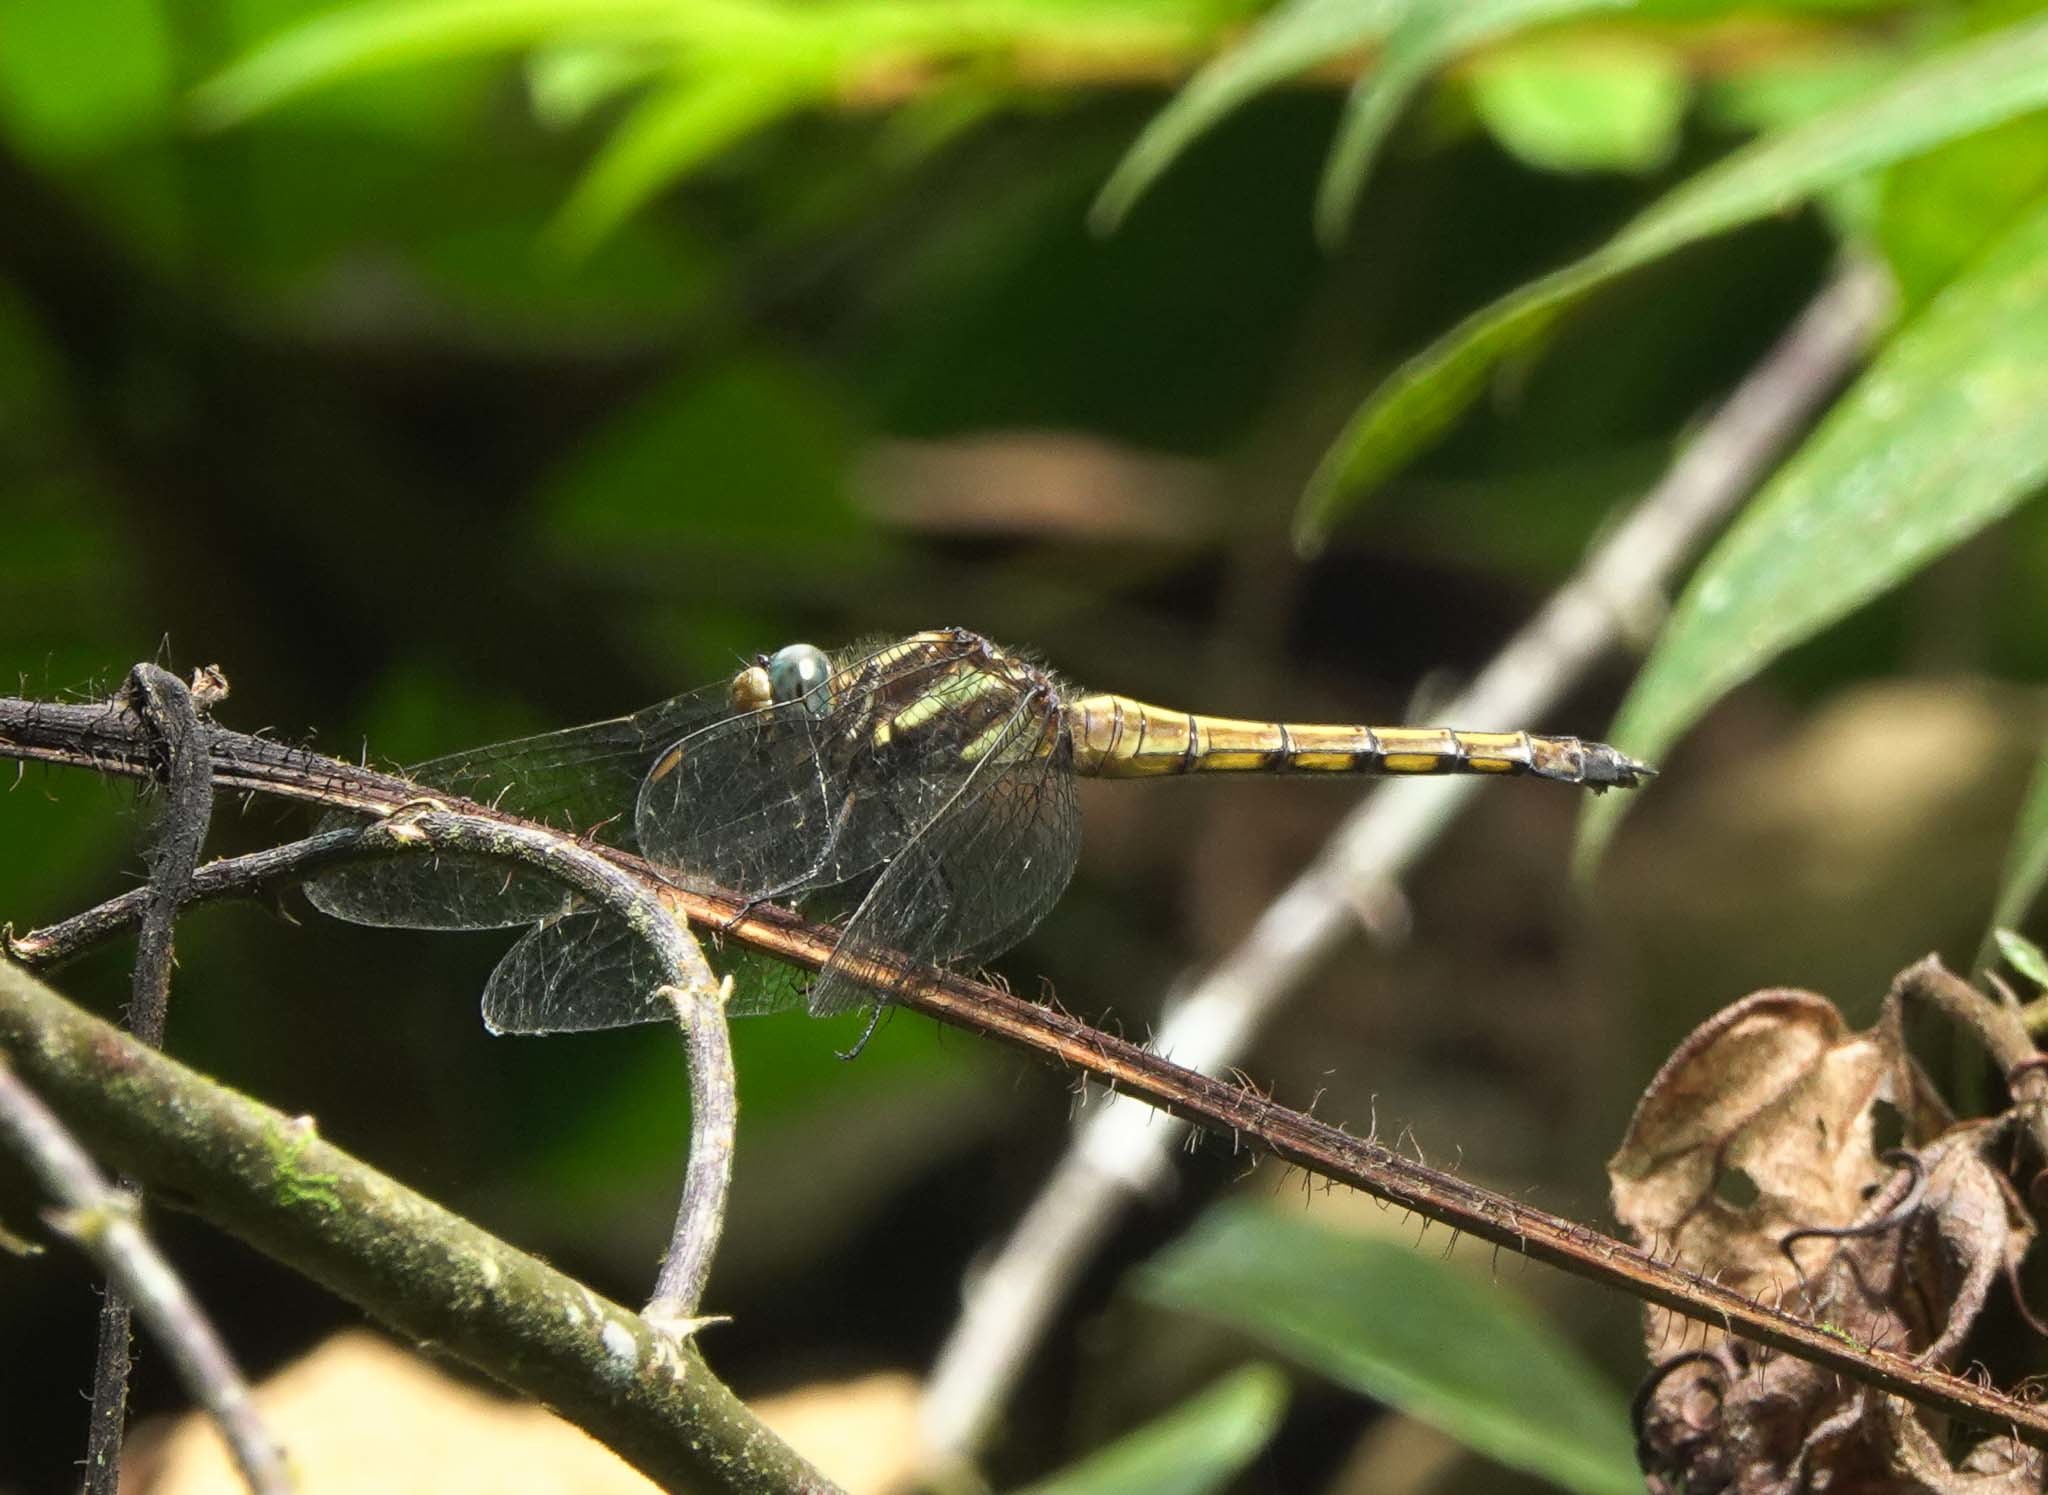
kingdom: Animalia
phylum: Arthropoda
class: Insecta
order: Odonata
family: Libellulidae
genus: Orthetrum
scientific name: Orthetrum glaucum
